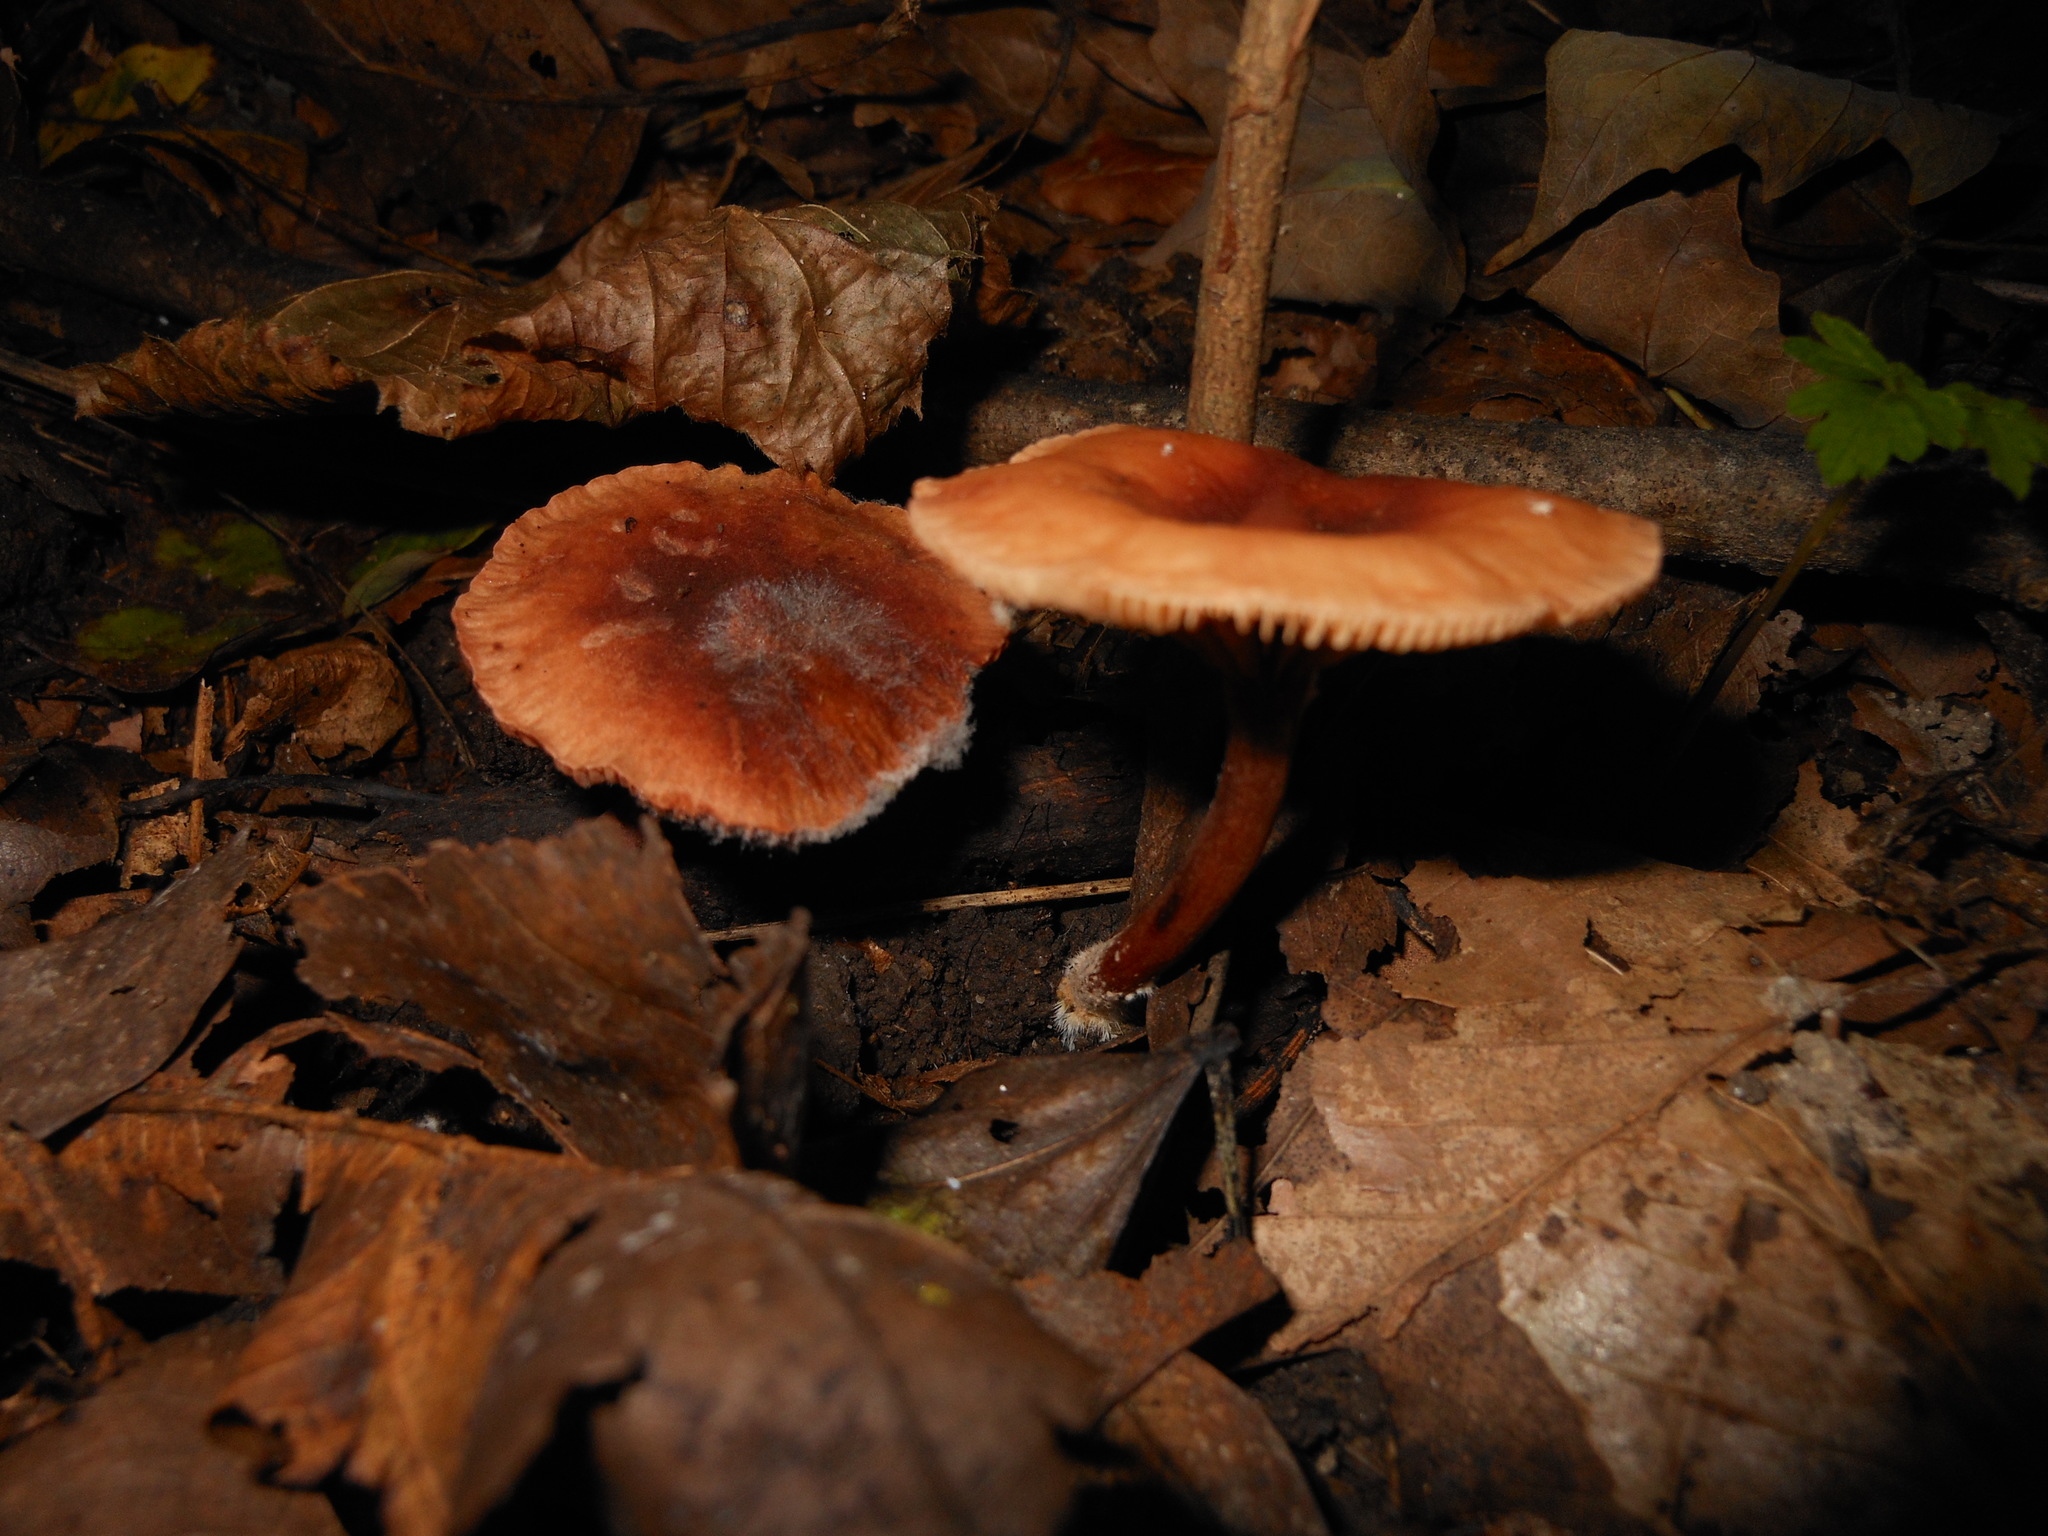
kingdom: Fungi
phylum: Basidiomycota
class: Agaricomycetes
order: Russulales
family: Russulaceae
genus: Lactarius
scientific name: Lactarius subserifluus
